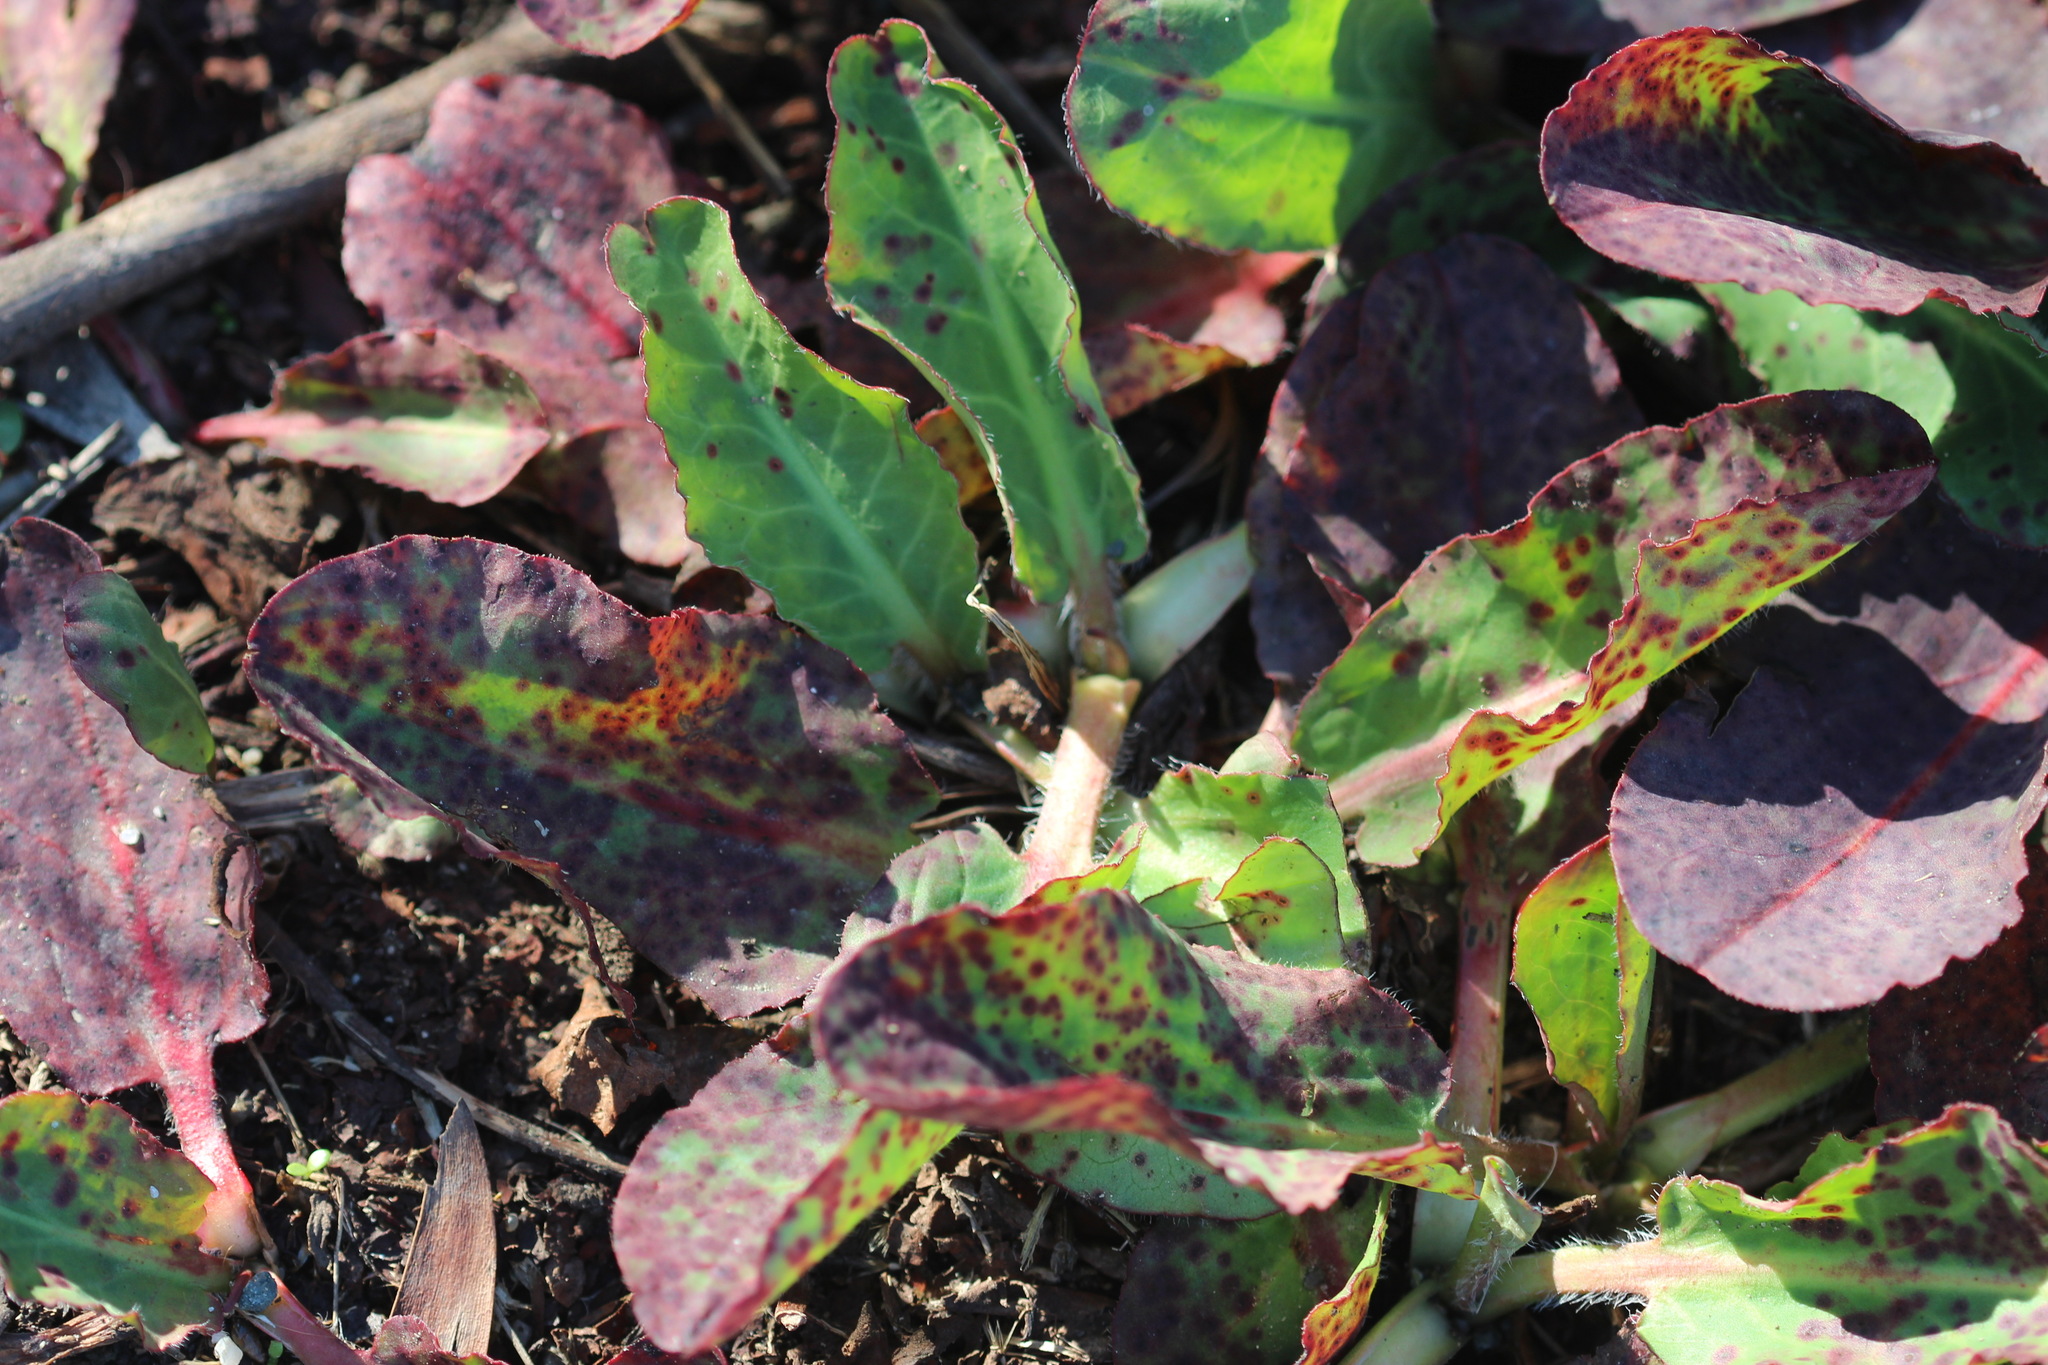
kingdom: Plantae
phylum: Tracheophyta
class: Magnoliopsida
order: Piperales
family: Saururaceae
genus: Anemopsis
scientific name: Anemopsis californica
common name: Apache-beads
